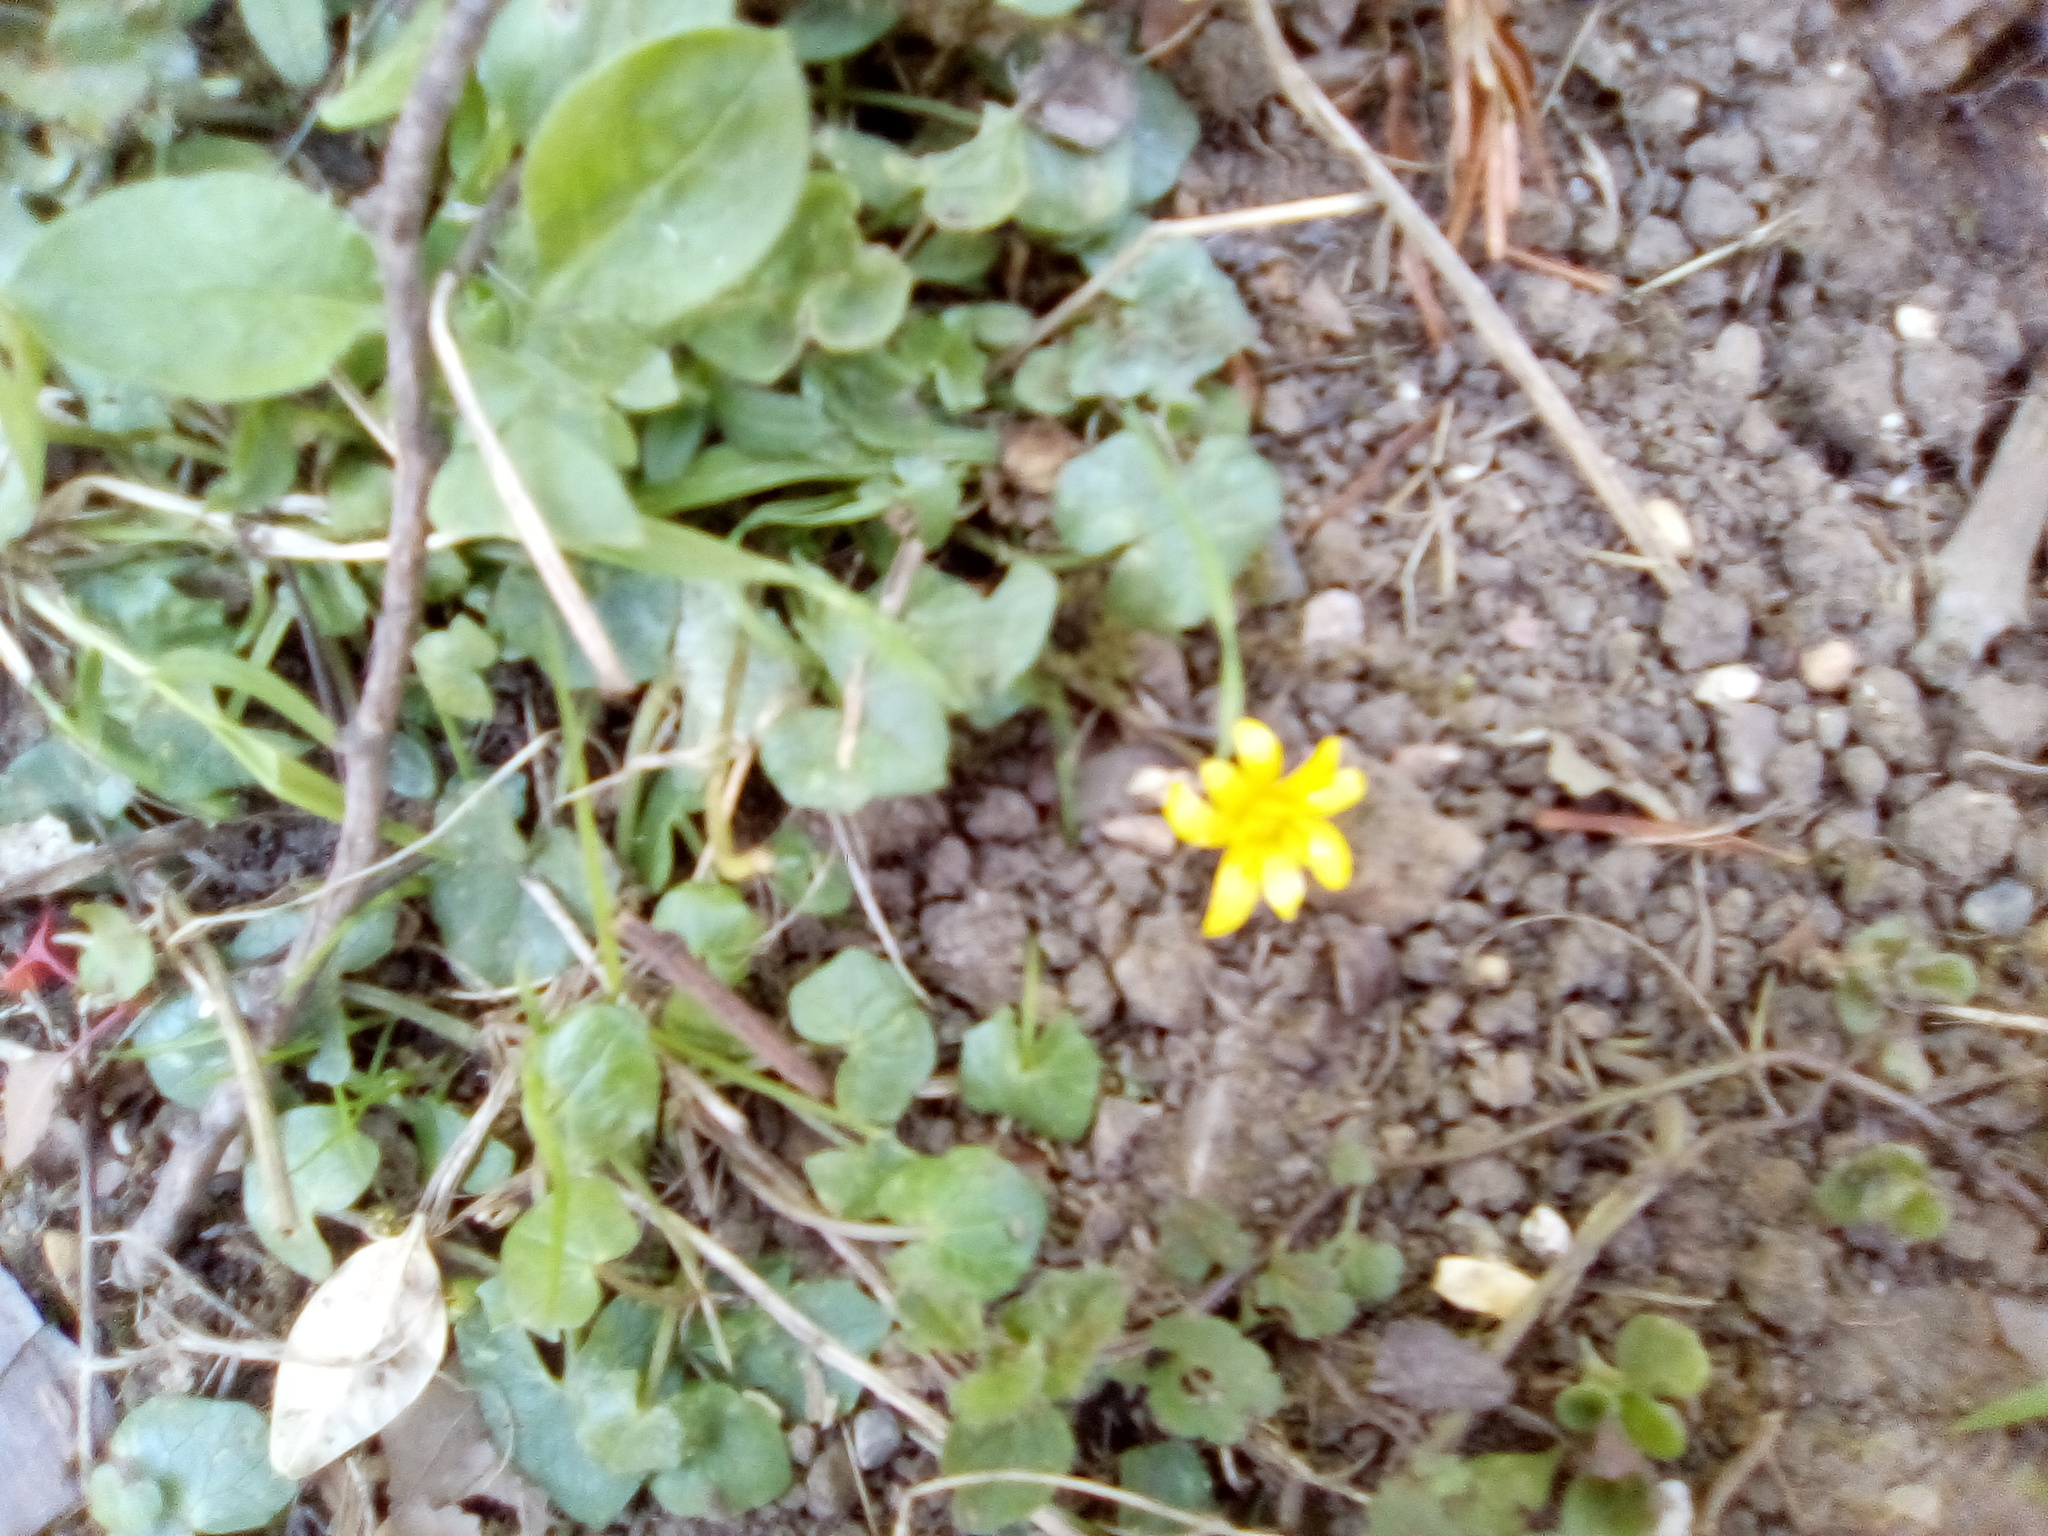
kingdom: Plantae
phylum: Tracheophyta
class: Magnoliopsida
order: Ranunculales
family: Ranunculaceae
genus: Ficaria
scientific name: Ficaria verna
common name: Lesser celandine
